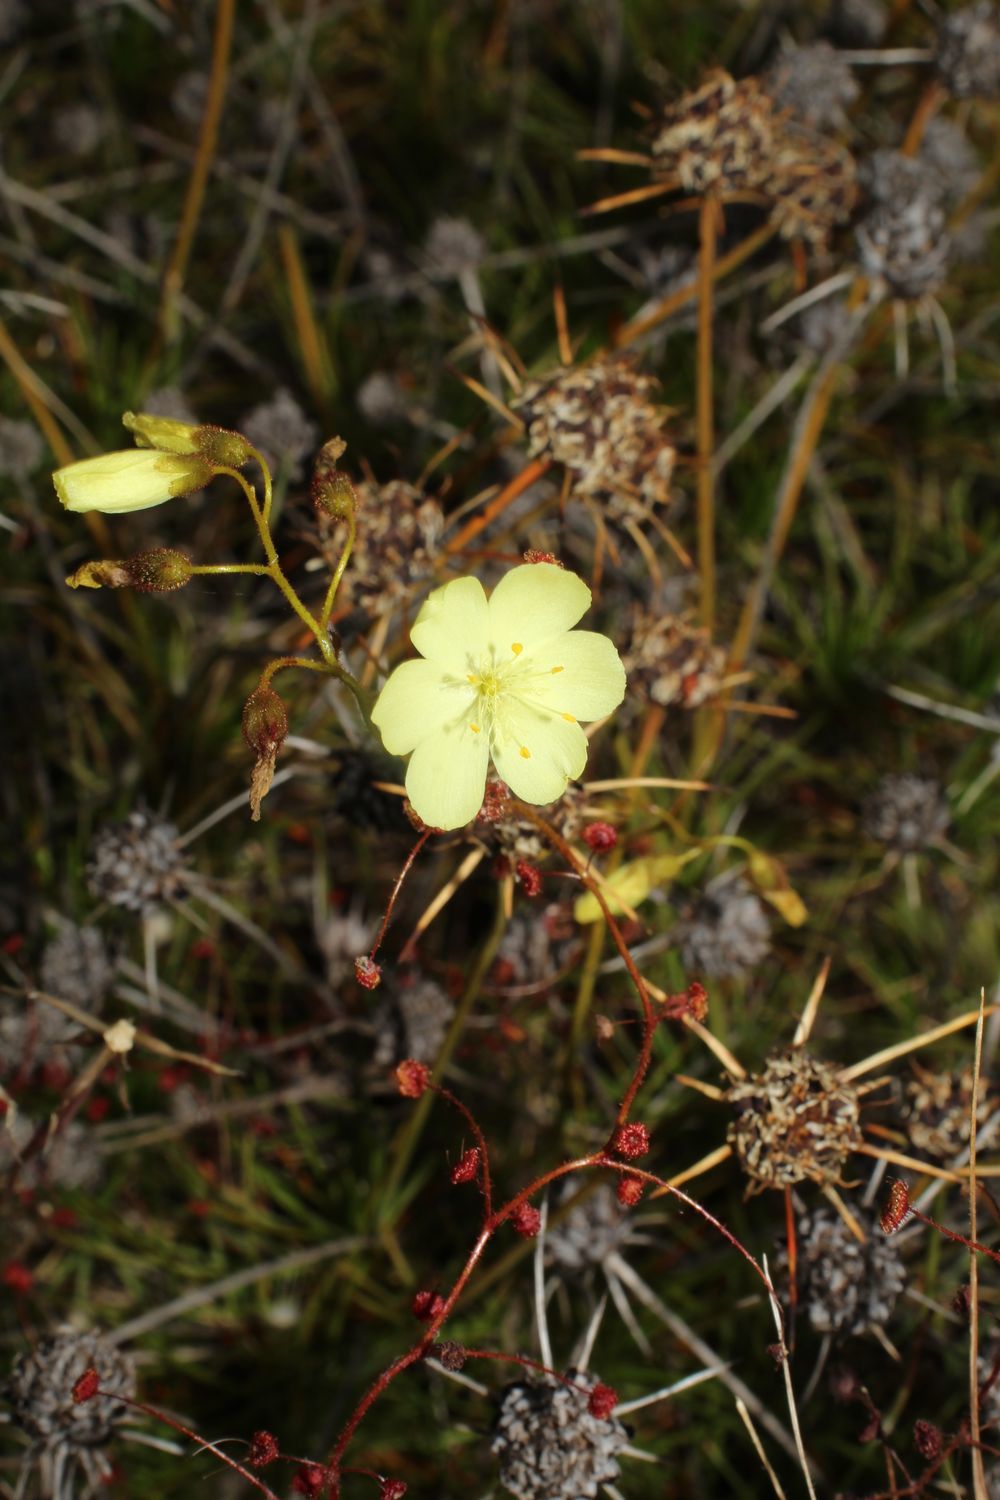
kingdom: Plantae
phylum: Tracheophyta
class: Magnoliopsida
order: Caryophyllales
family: Droseraceae
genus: Drosera
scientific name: Drosera subhirtella
